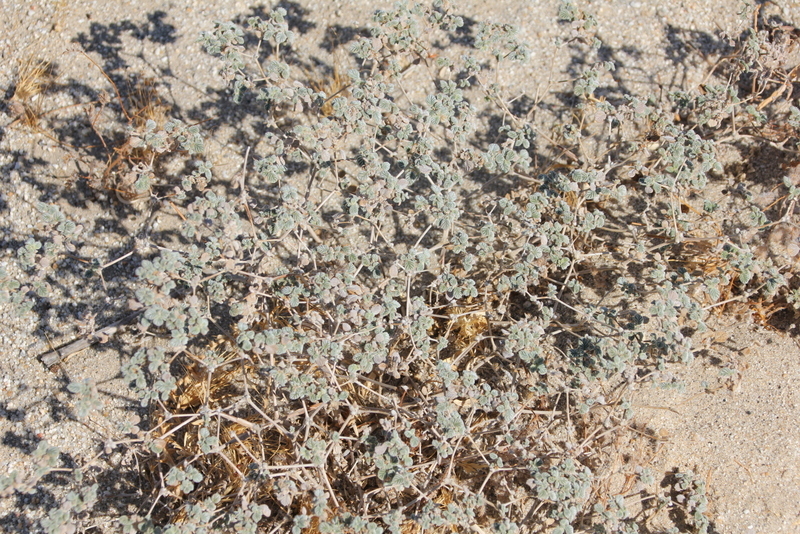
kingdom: Plantae
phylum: Tracheophyta
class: Magnoliopsida
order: Boraginales
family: Ehretiaceae
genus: Tiquilia
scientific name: Tiquilia plicata
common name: Fan-leaf tiquilia
